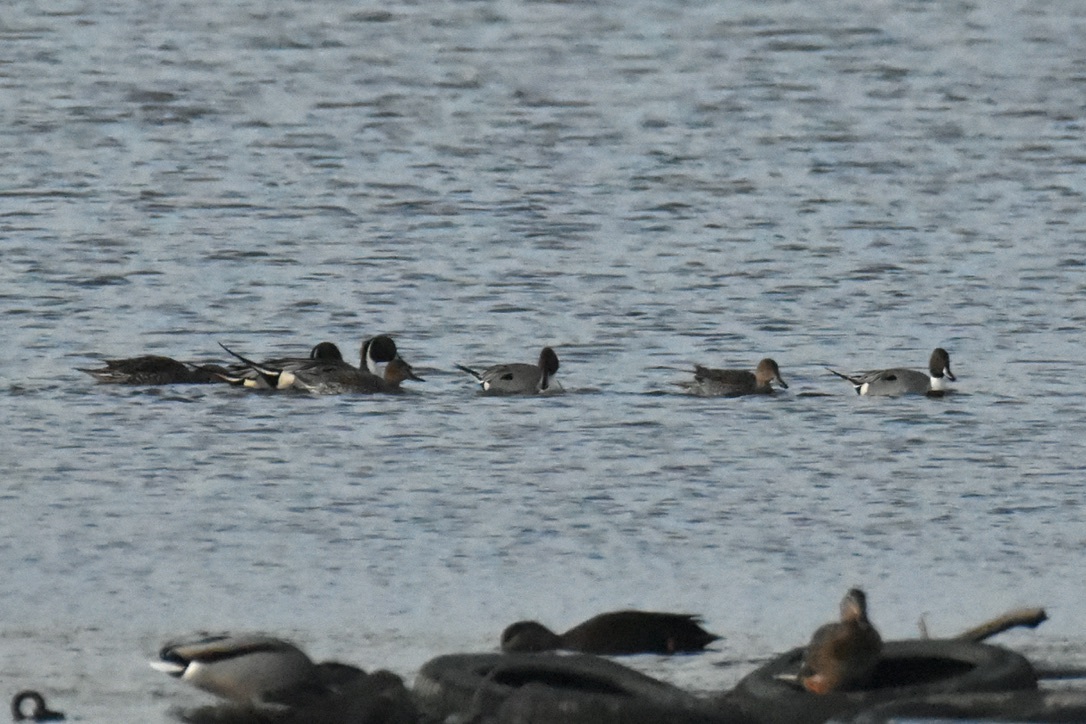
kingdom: Animalia
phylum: Chordata
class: Aves
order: Anseriformes
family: Anatidae
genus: Anas
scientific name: Anas acuta
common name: Northern pintail
